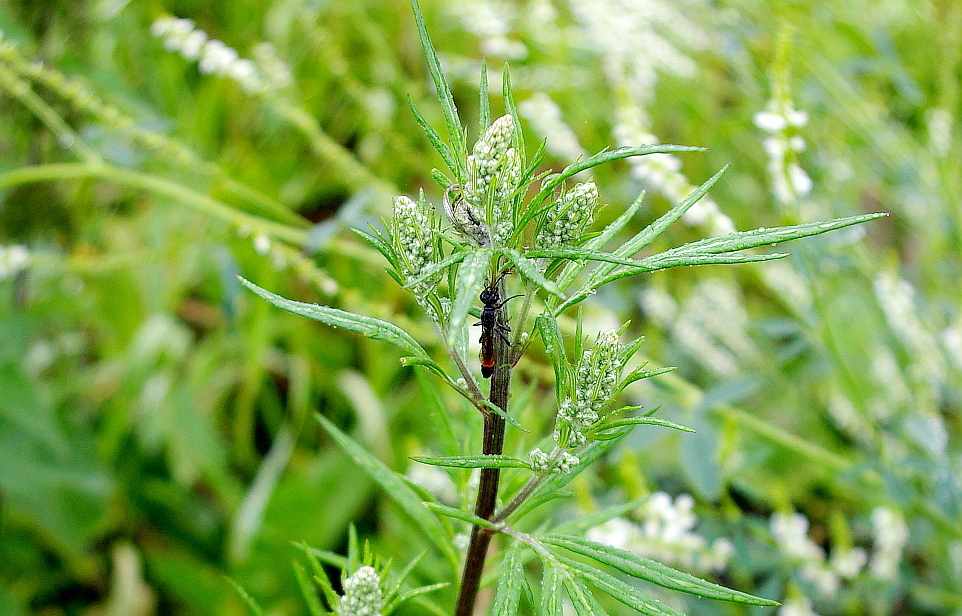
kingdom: Plantae
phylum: Tracheophyta
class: Magnoliopsida
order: Asterales
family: Asteraceae
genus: Artemisia
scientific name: Artemisia vulgaris
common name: Mugwort
